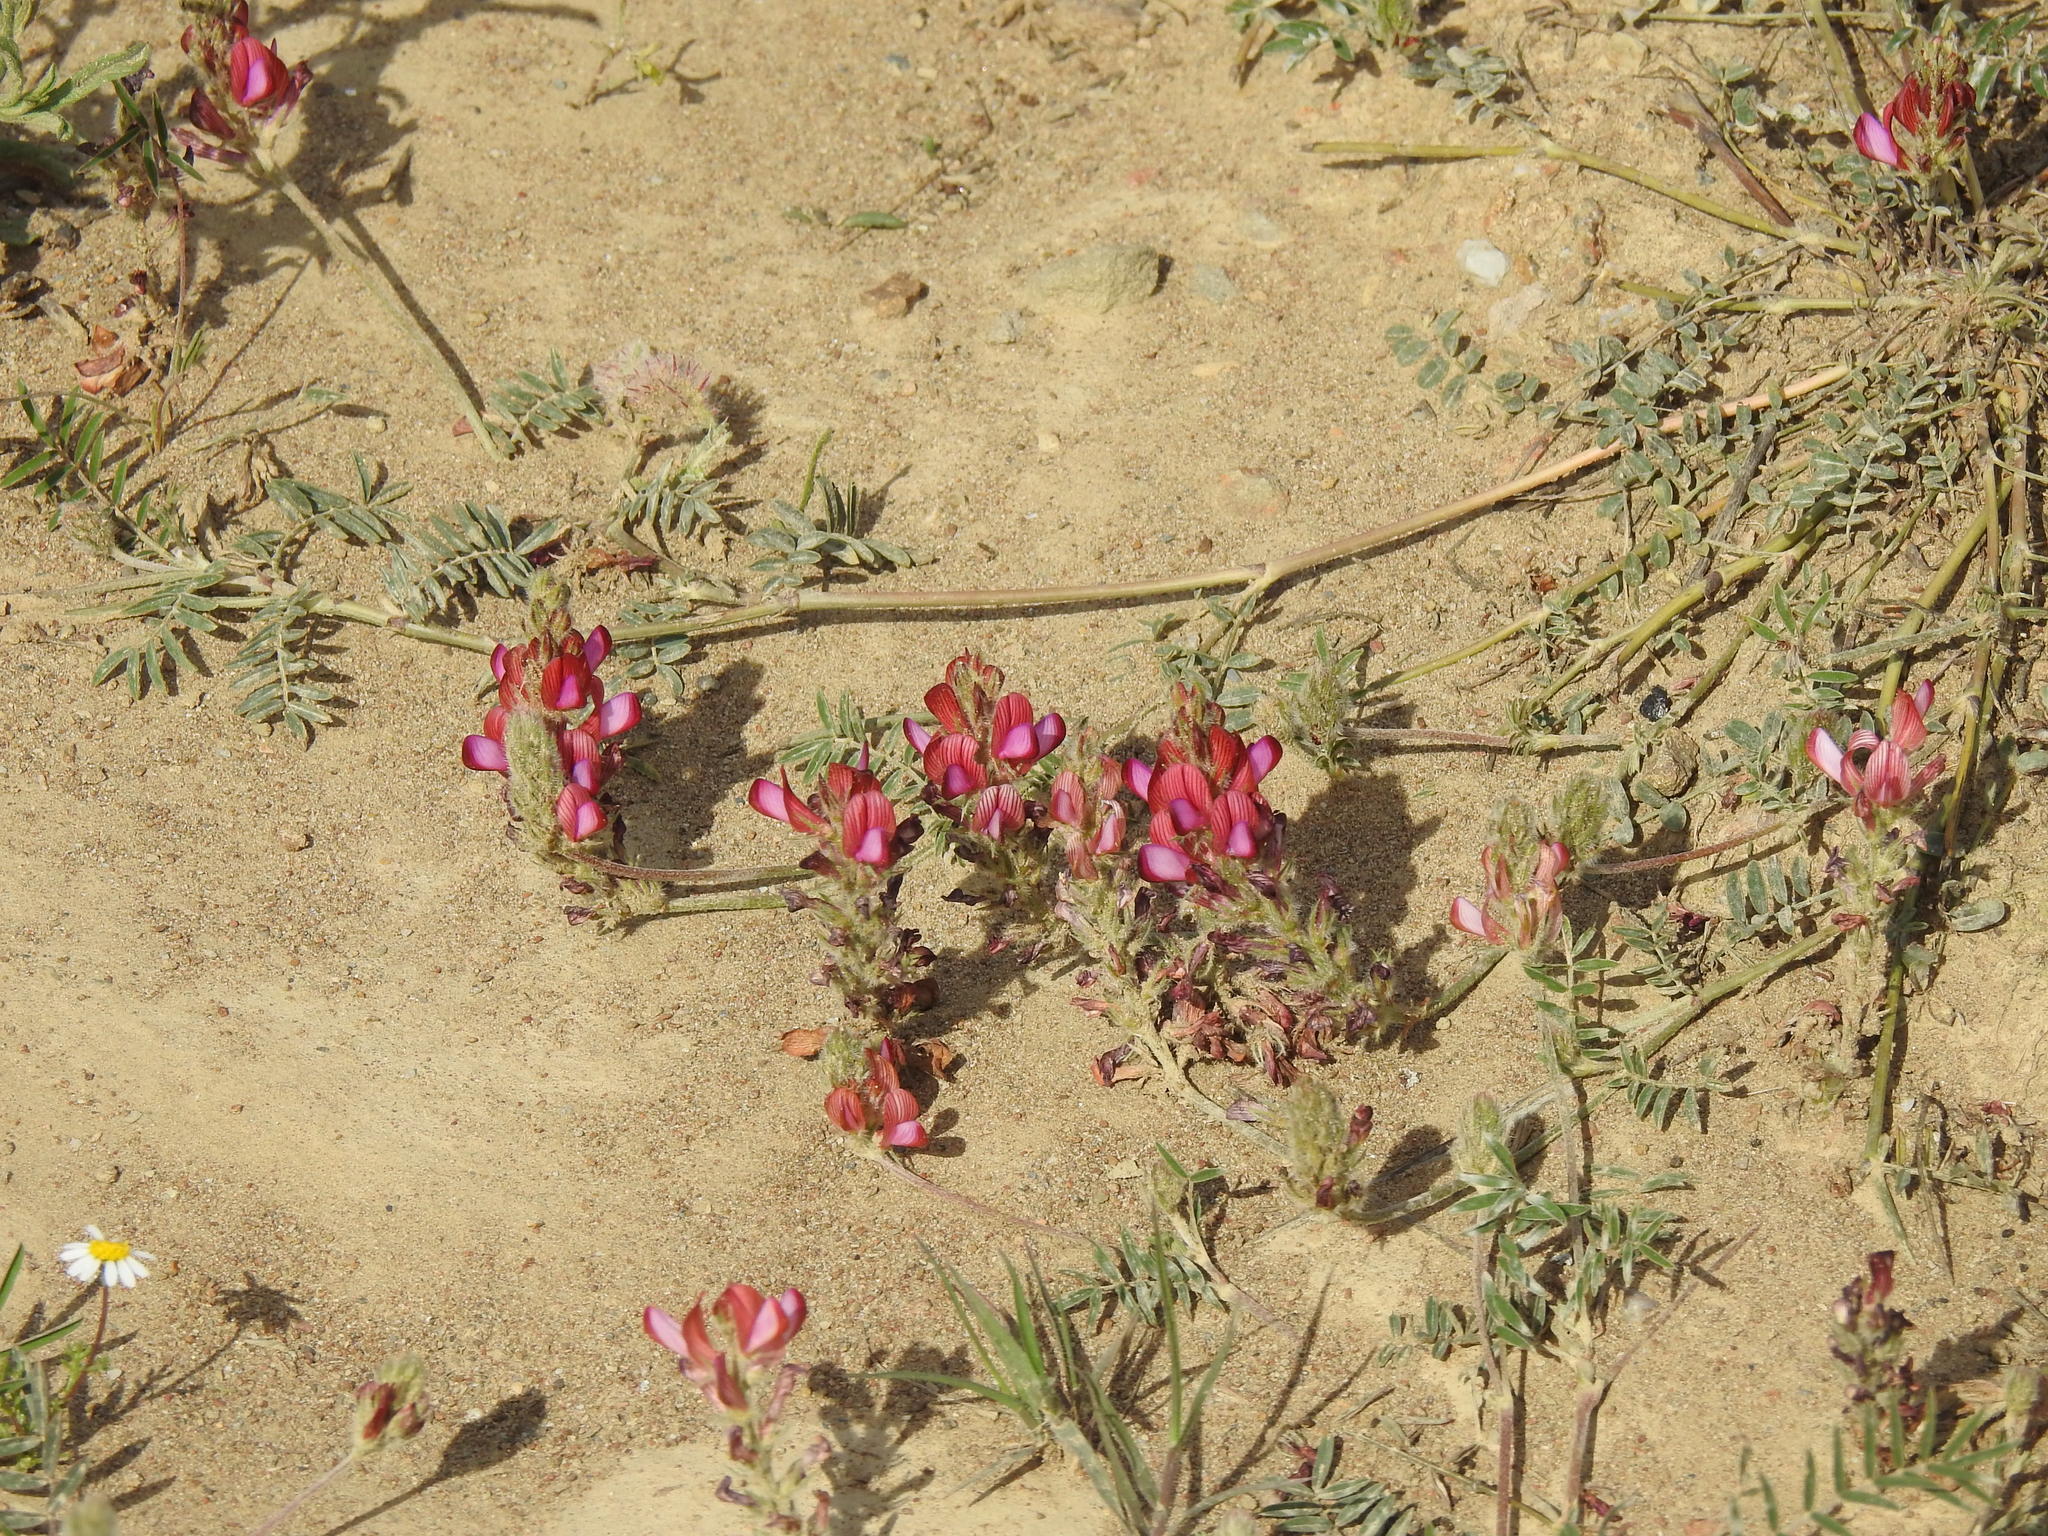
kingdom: Plantae
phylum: Tracheophyta
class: Magnoliopsida
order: Fabales
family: Fabaceae
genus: Onobrychis
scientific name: Onobrychis humilis
